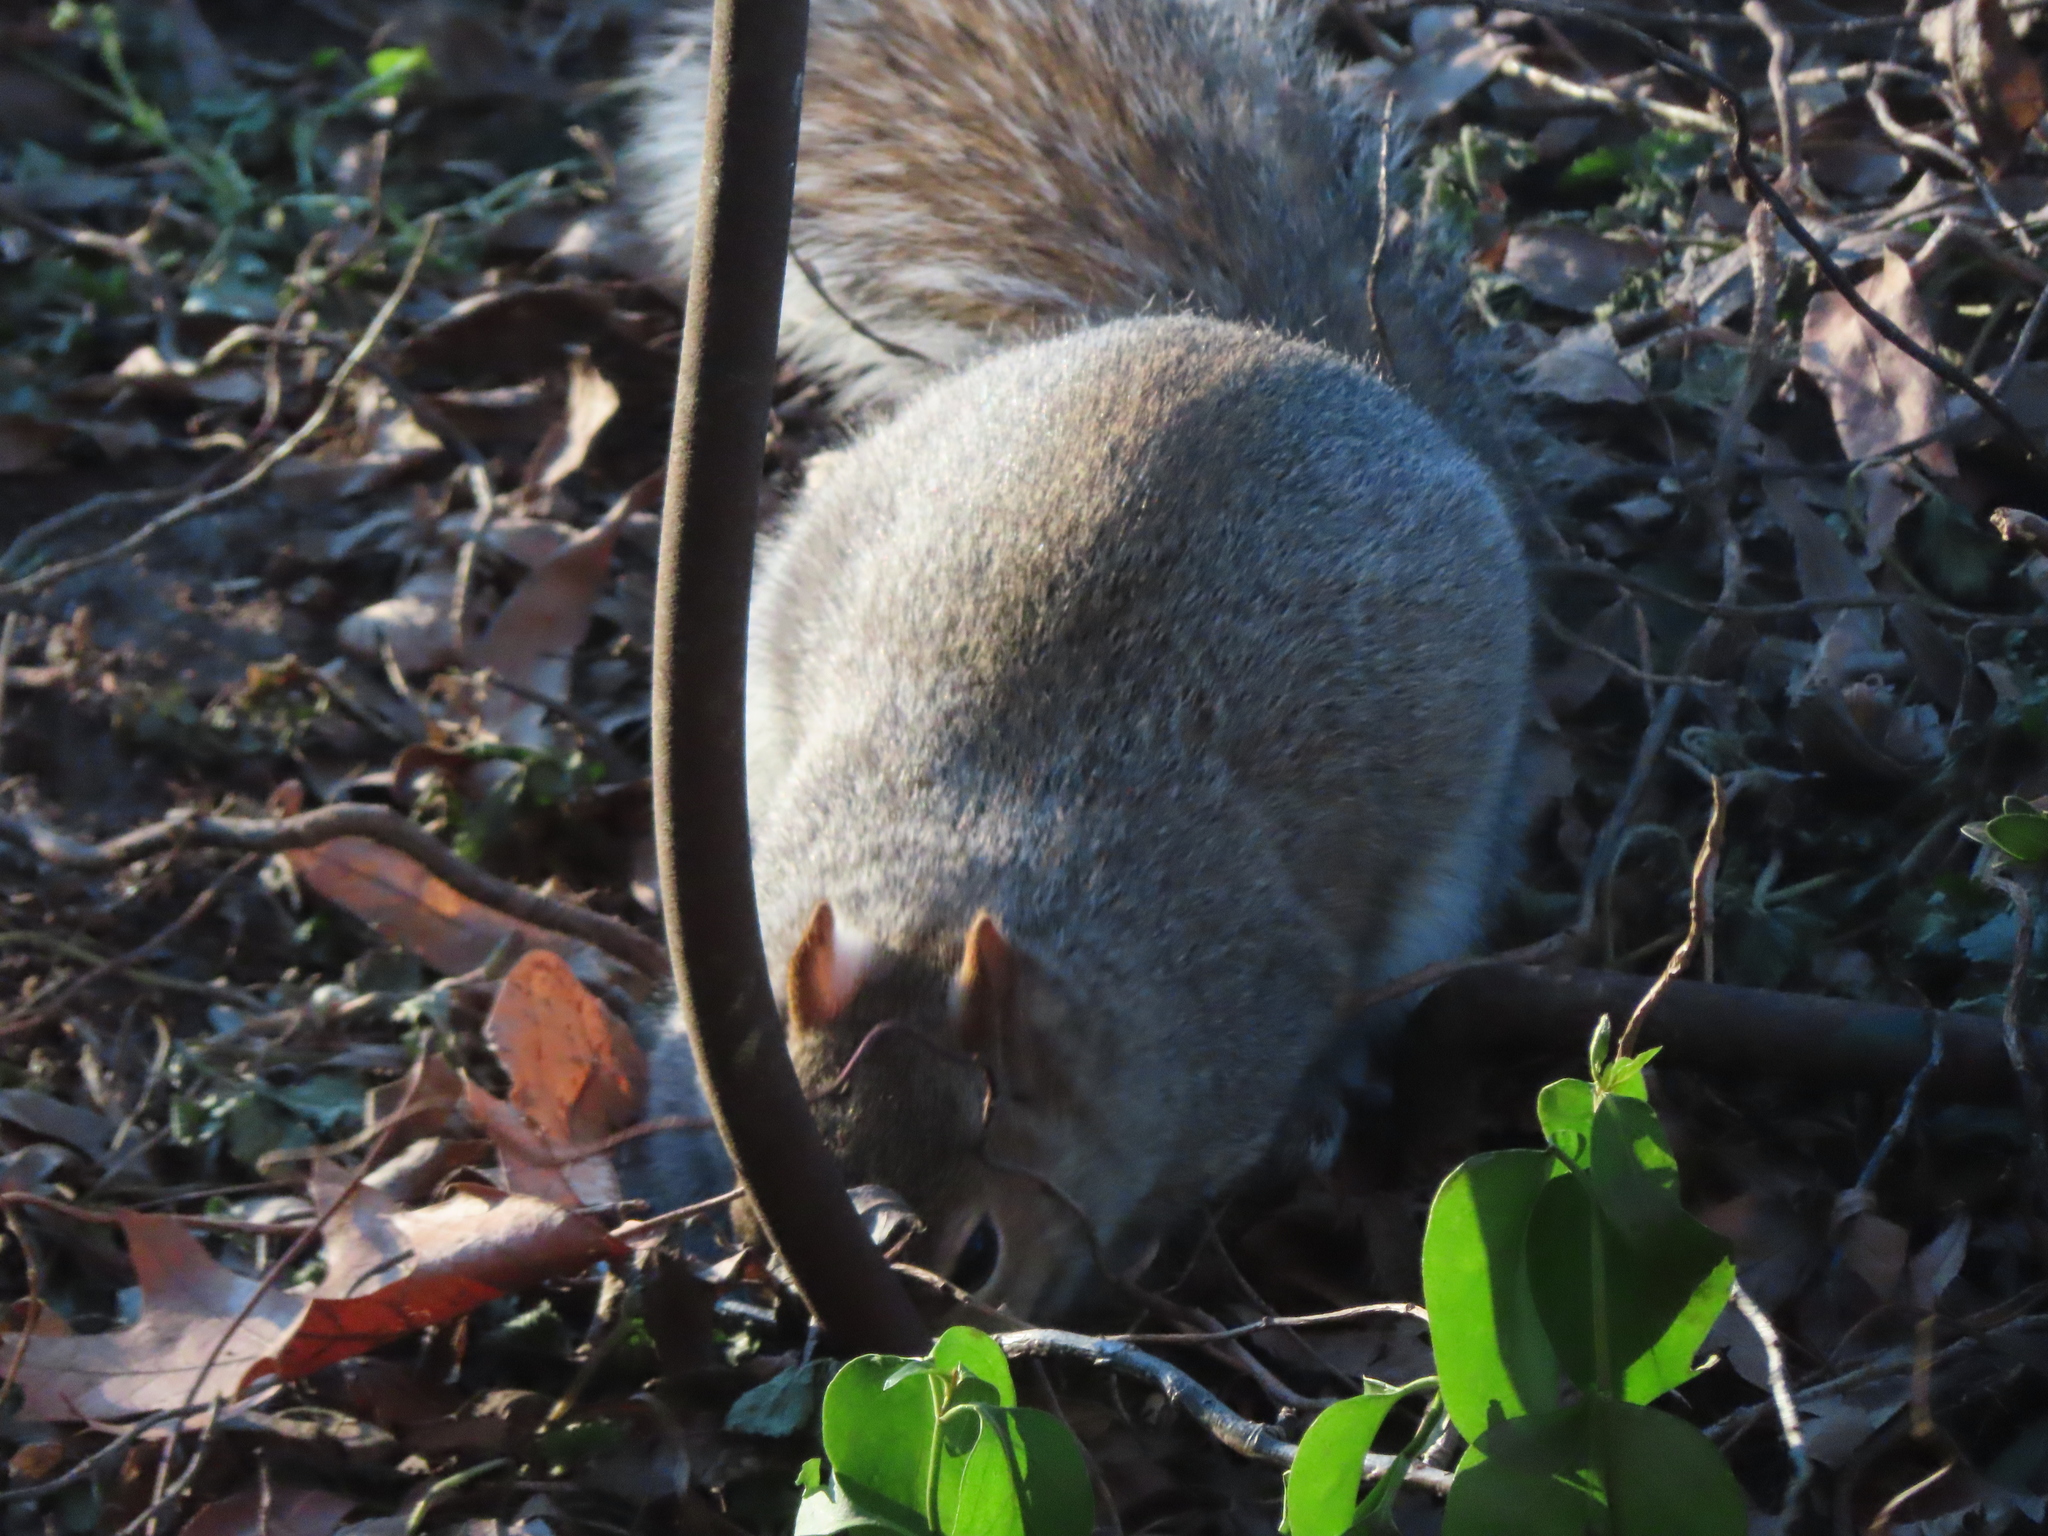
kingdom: Animalia
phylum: Chordata
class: Mammalia
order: Rodentia
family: Sciuridae
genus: Sciurus
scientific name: Sciurus carolinensis
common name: Eastern gray squirrel
